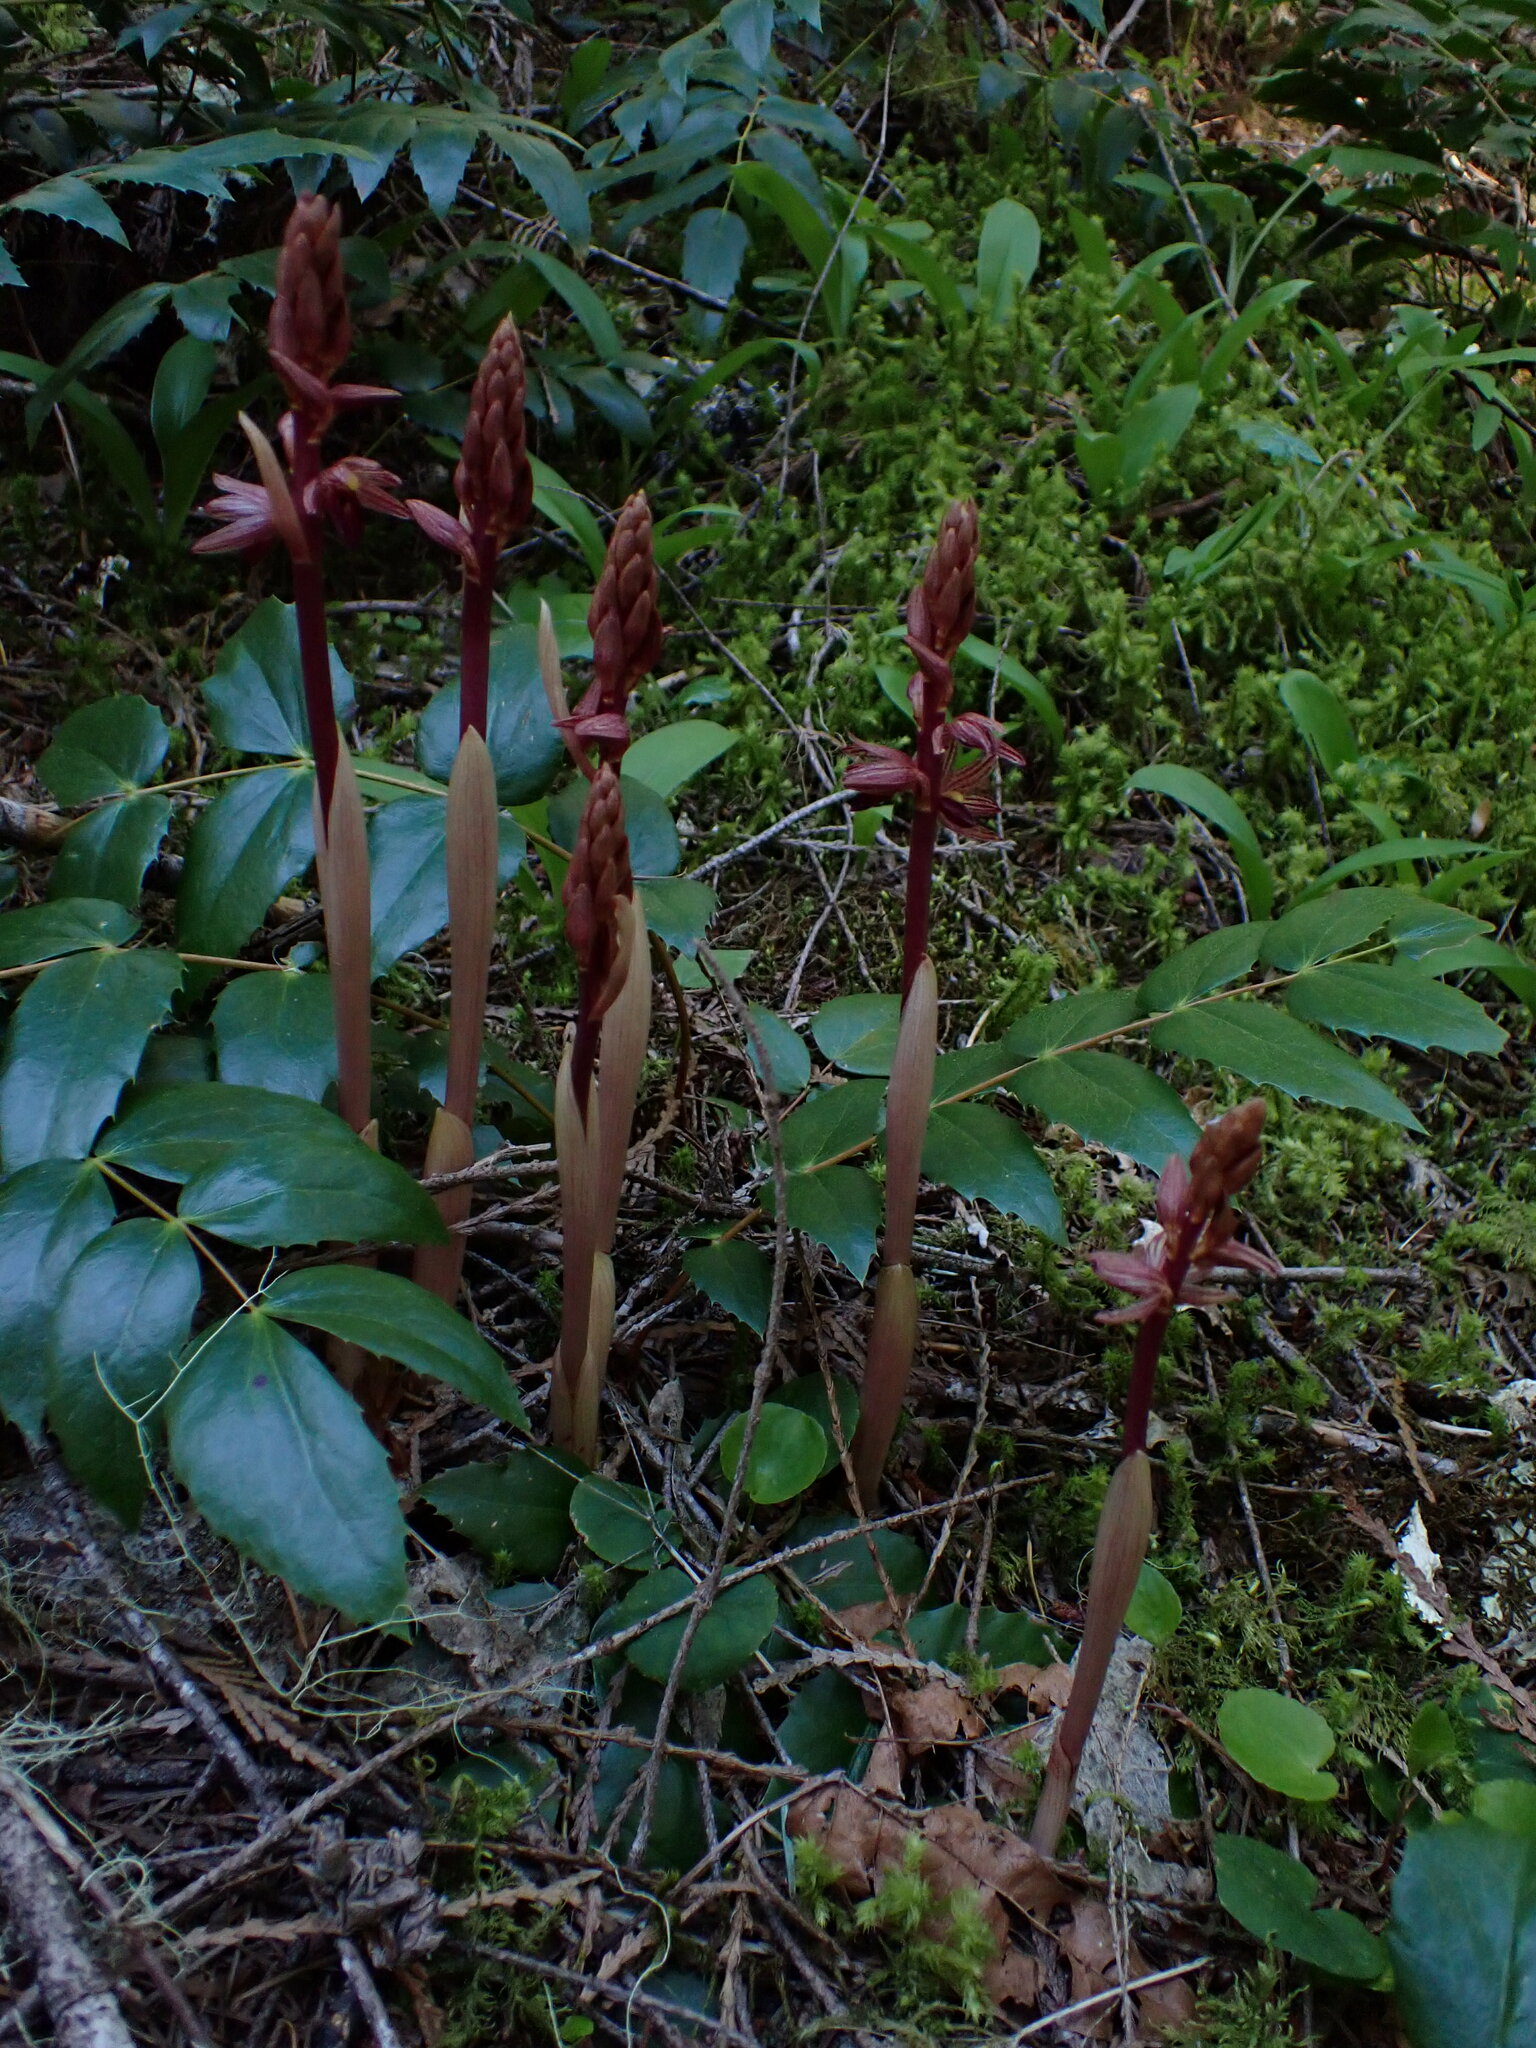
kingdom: Plantae
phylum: Tracheophyta
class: Liliopsida
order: Asparagales
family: Orchidaceae
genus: Corallorhiza
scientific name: Corallorhiza striata
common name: Hooded coralroot
